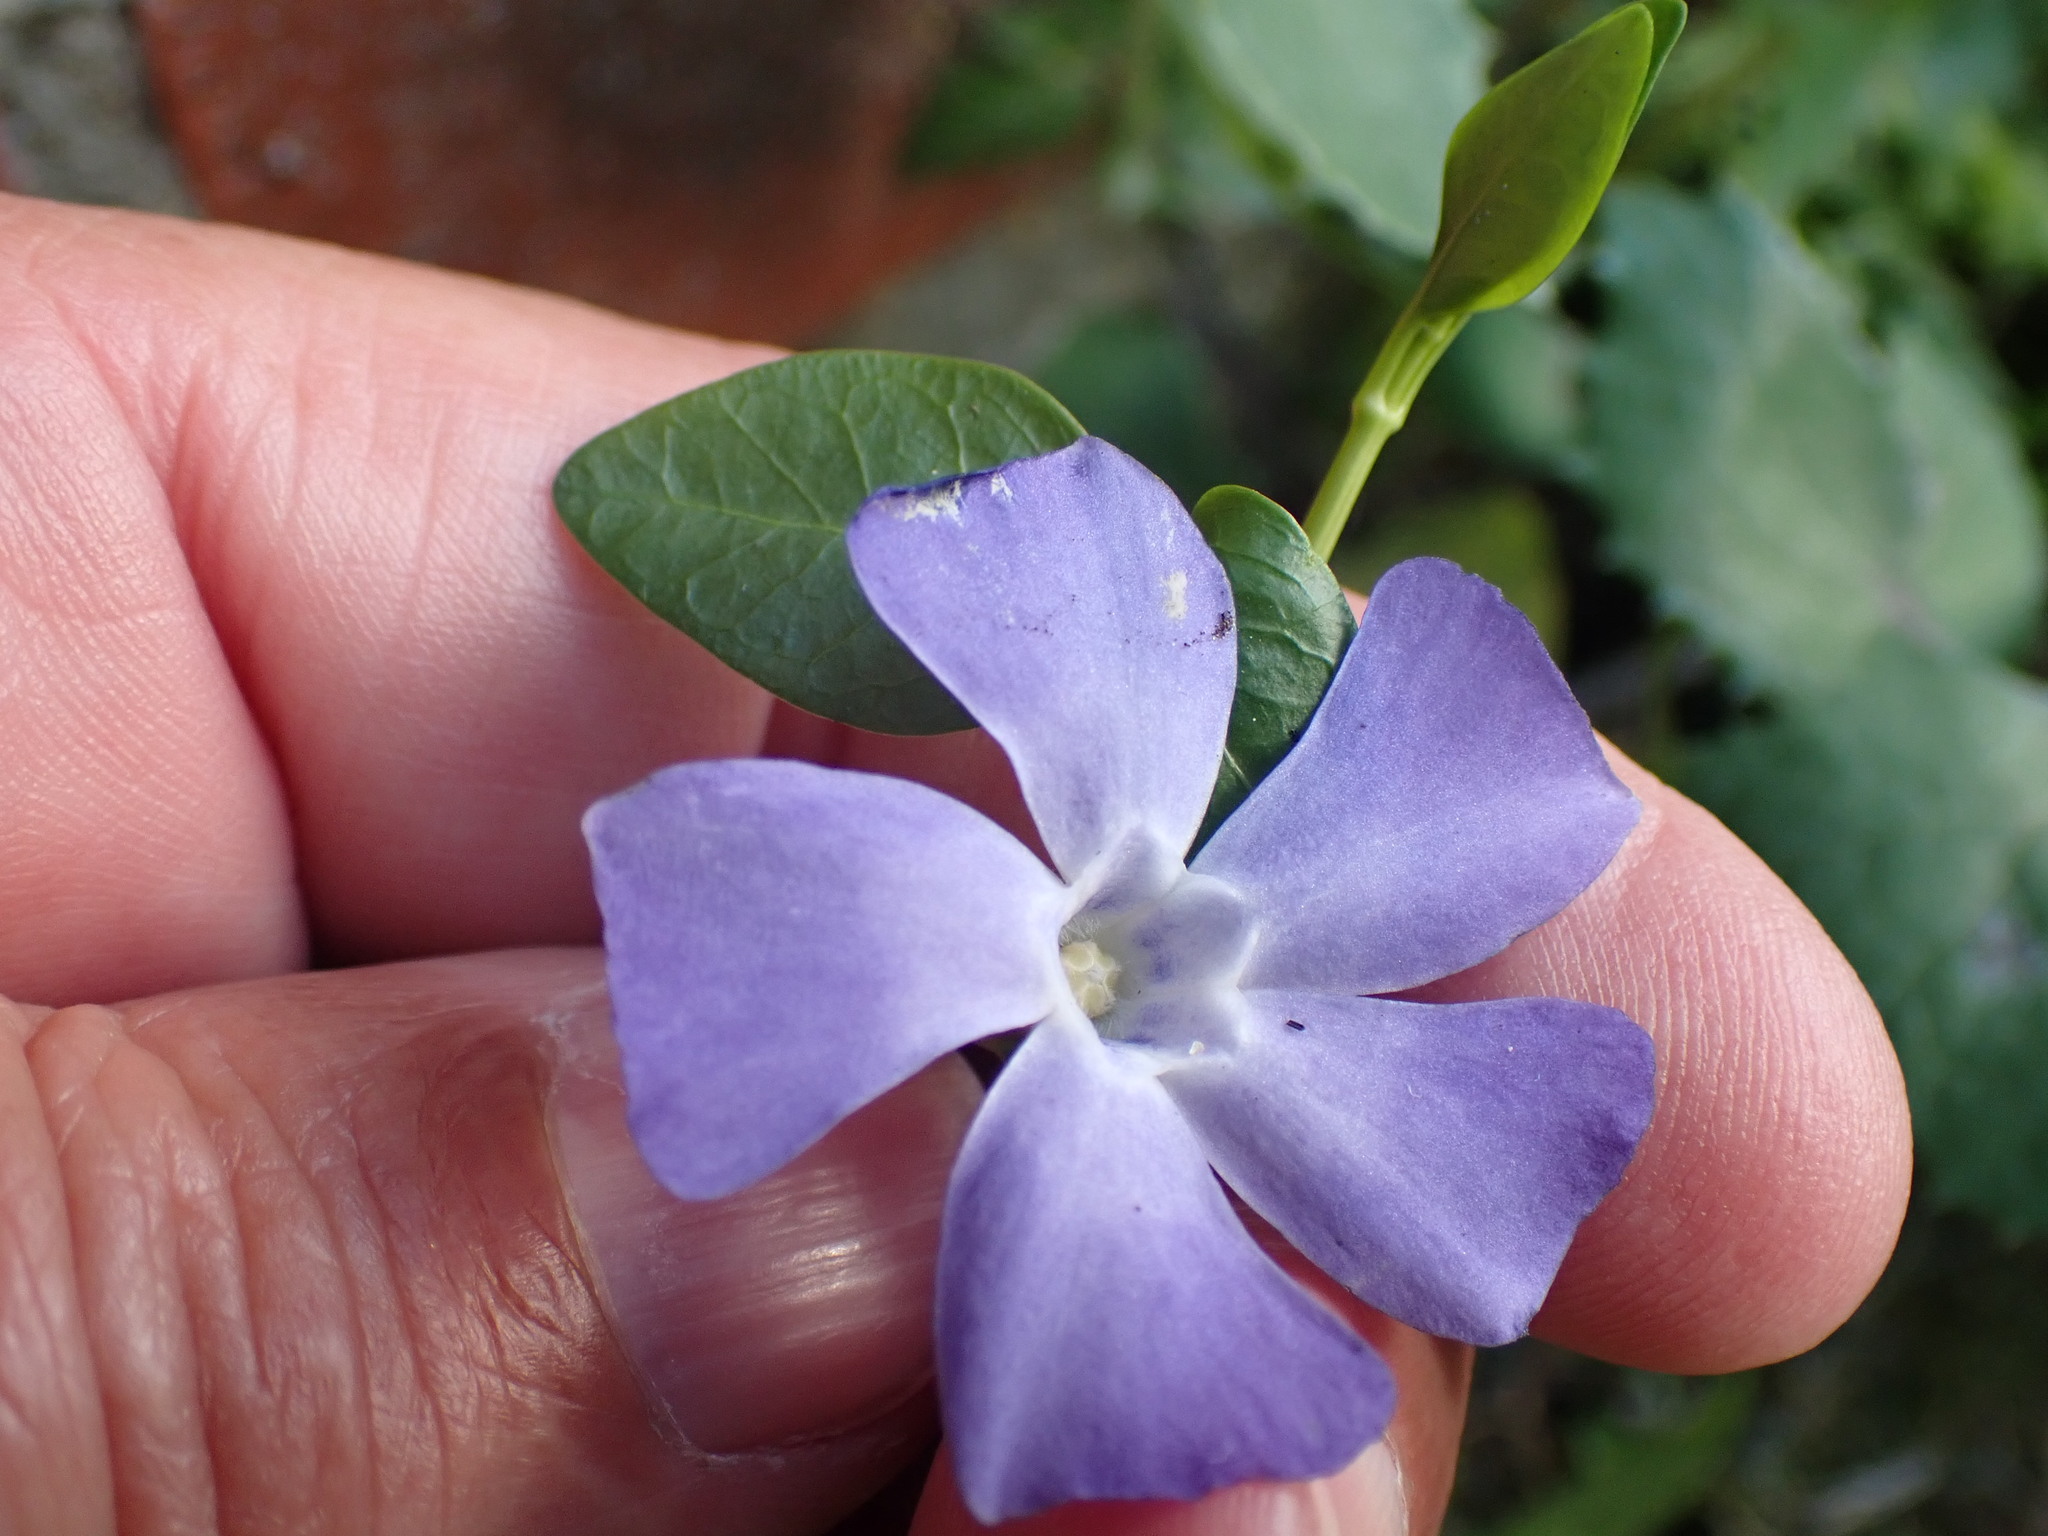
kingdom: Plantae
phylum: Tracheophyta
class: Magnoliopsida
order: Gentianales
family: Apocynaceae
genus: Vinca
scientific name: Vinca minor
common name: Lesser periwinkle
